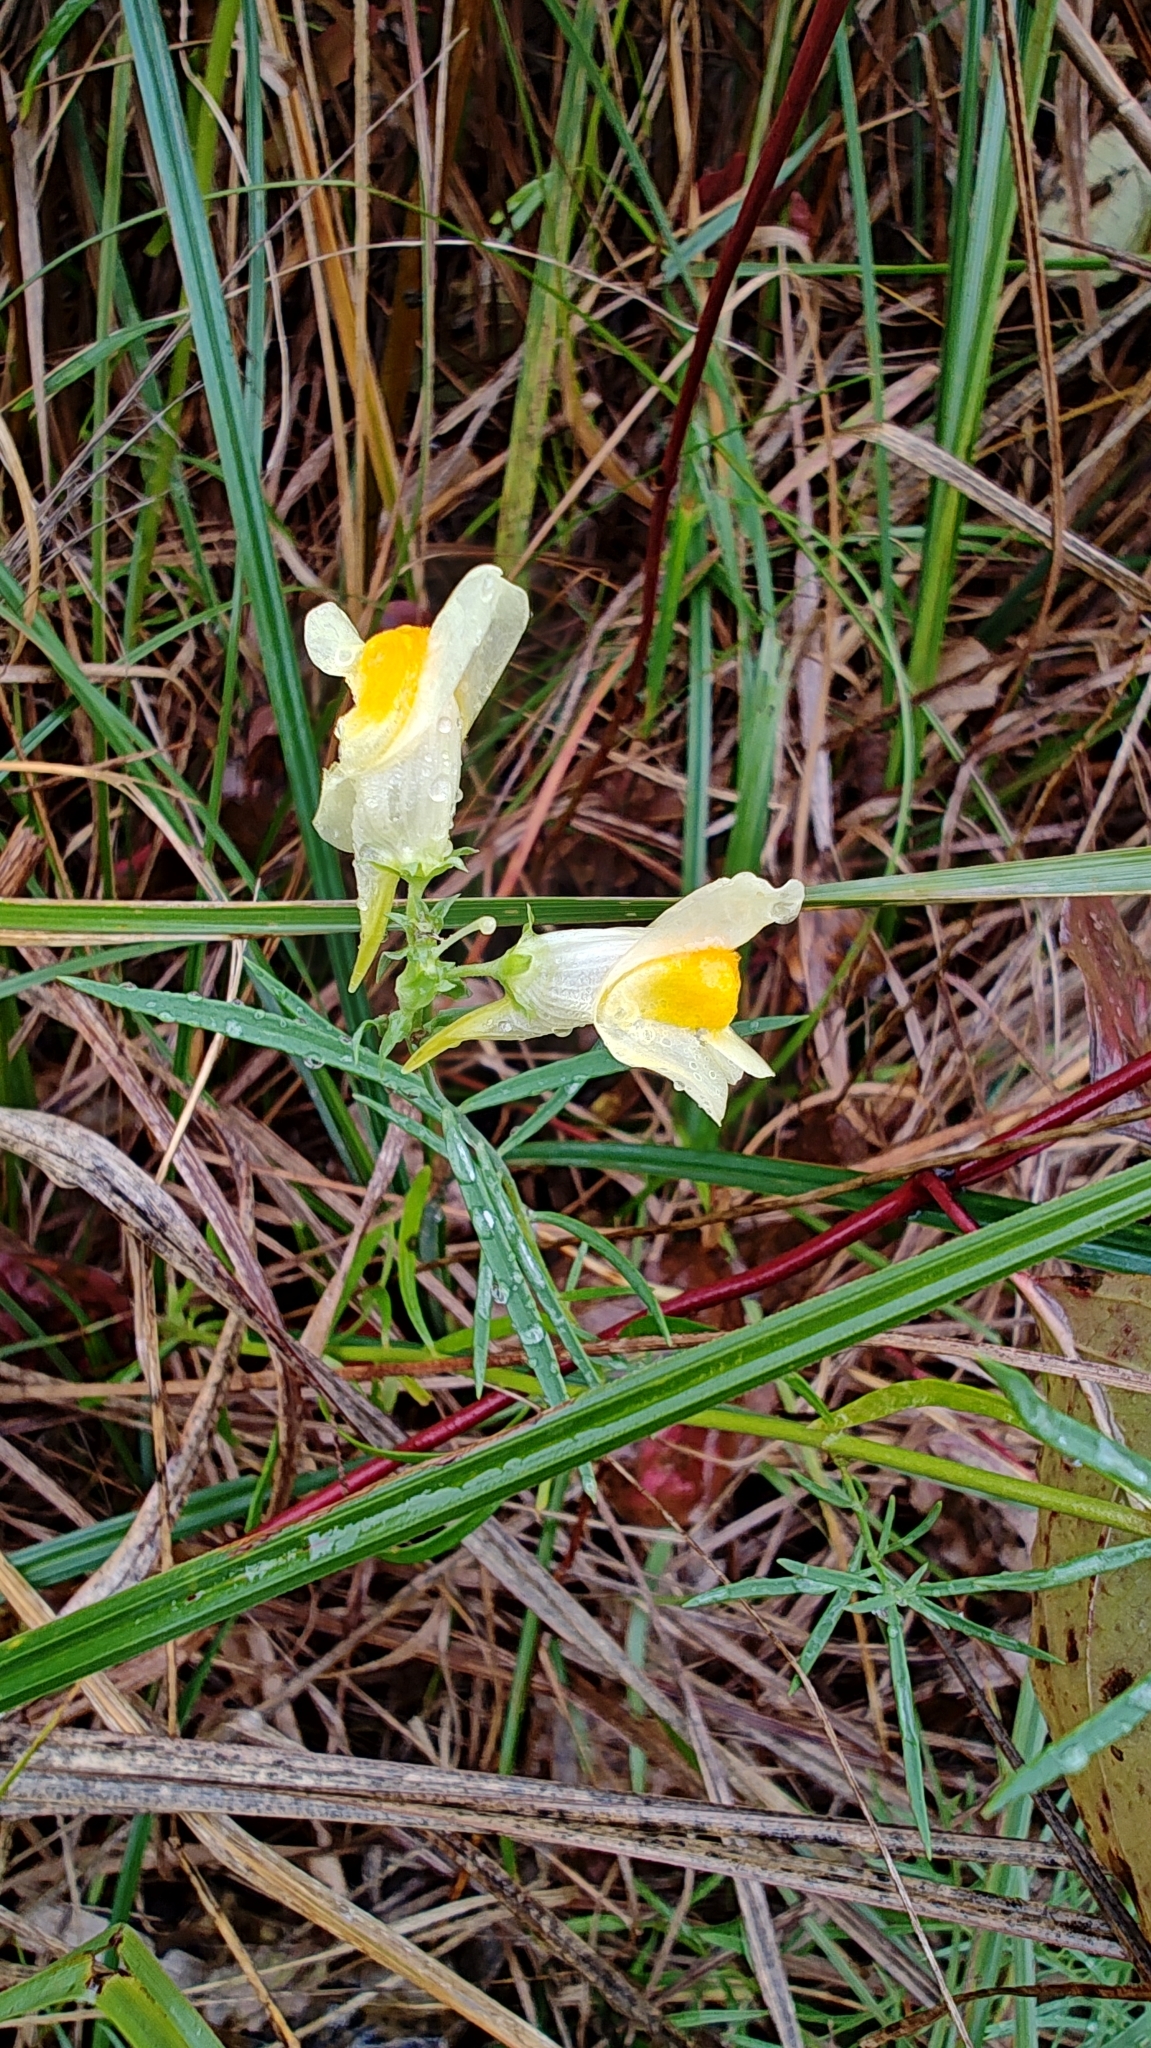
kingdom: Plantae
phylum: Tracheophyta
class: Magnoliopsida
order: Lamiales
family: Plantaginaceae
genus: Linaria
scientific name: Linaria vulgaris
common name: Butter and eggs
